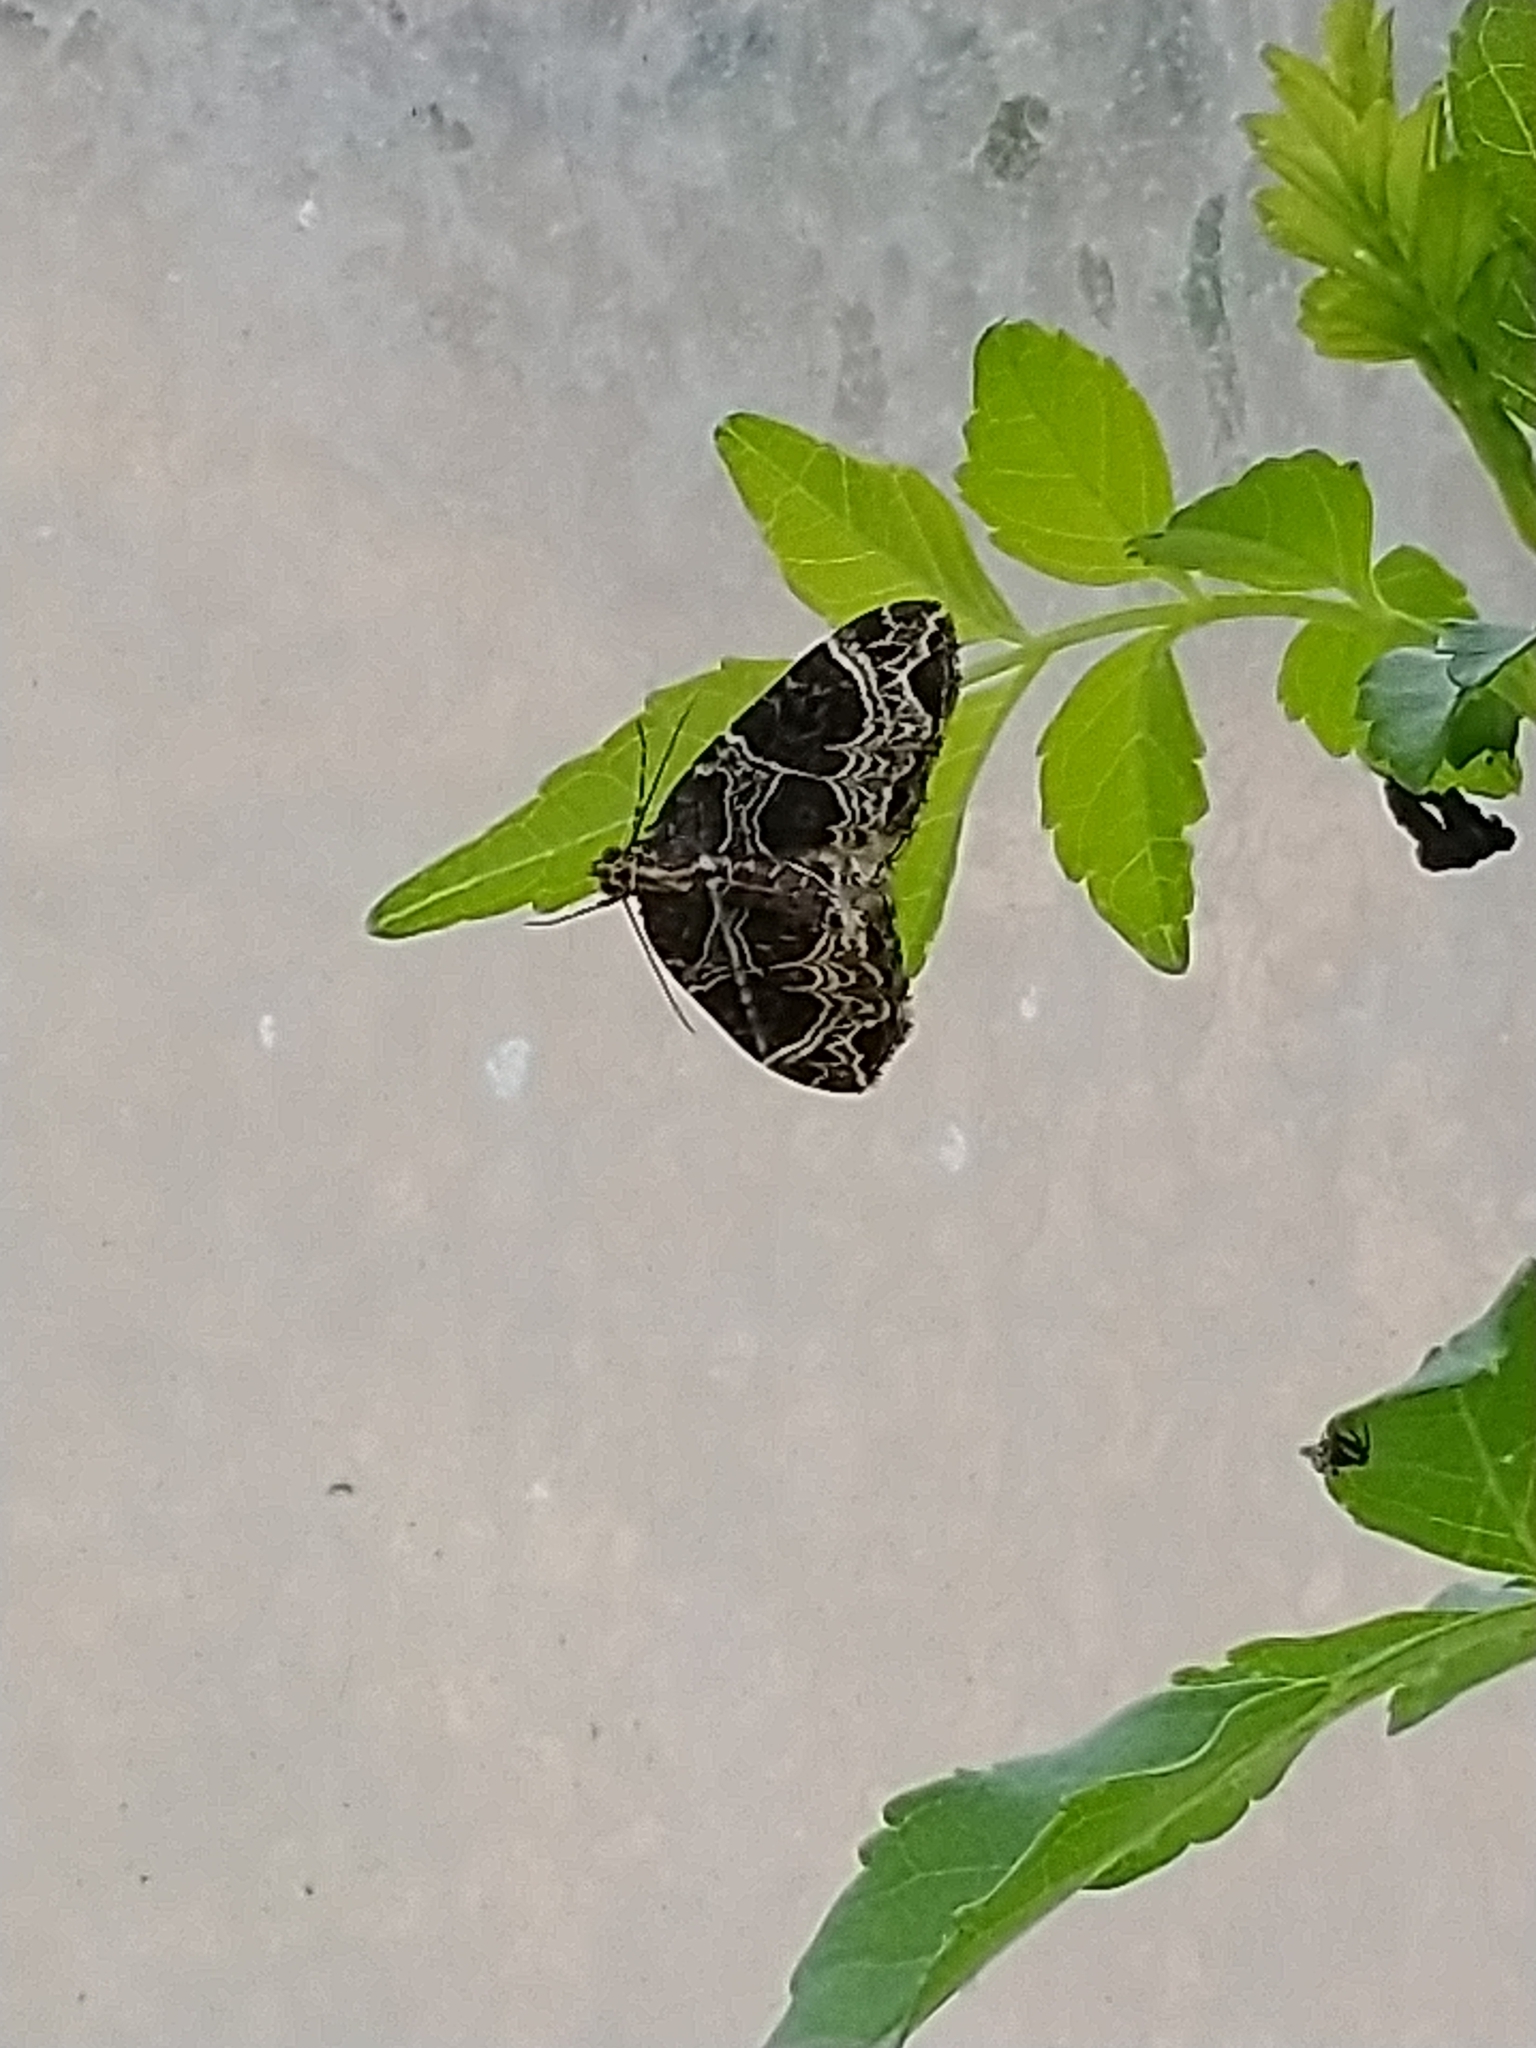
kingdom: Animalia
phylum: Arthropoda
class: Insecta
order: Lepidoptera
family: Geometridae
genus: Ecliptopera
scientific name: Ecliptopera silaceata
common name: Small phoenix
